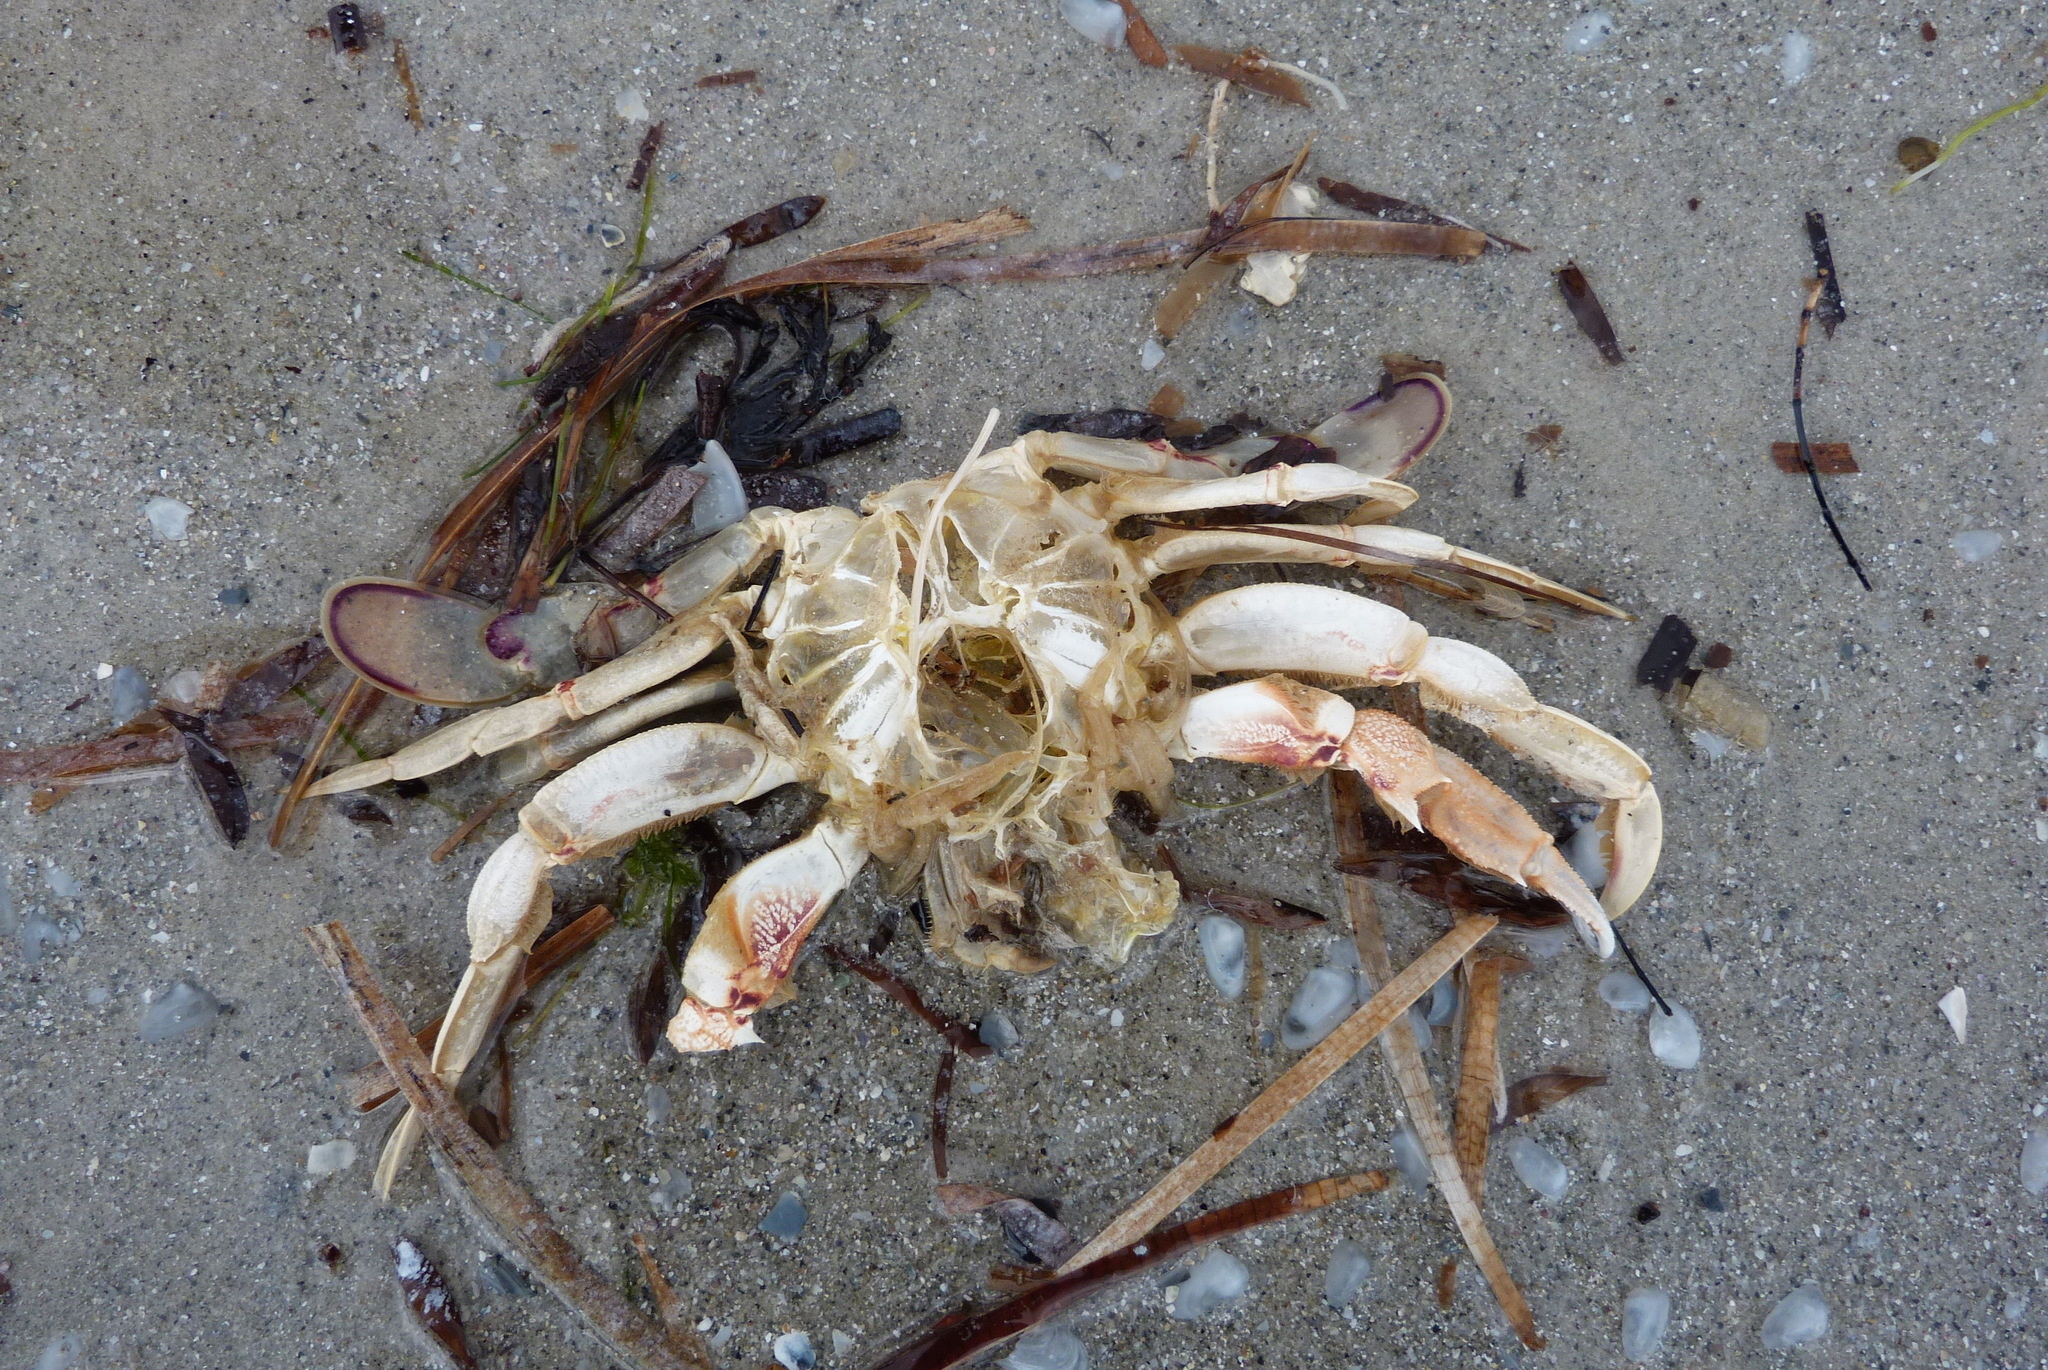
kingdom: Animalia
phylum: Arthropoda
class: Malacostraca
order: Decapoda
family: Ovalipidae
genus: Ovalipes
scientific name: Ovalipes australiensis
